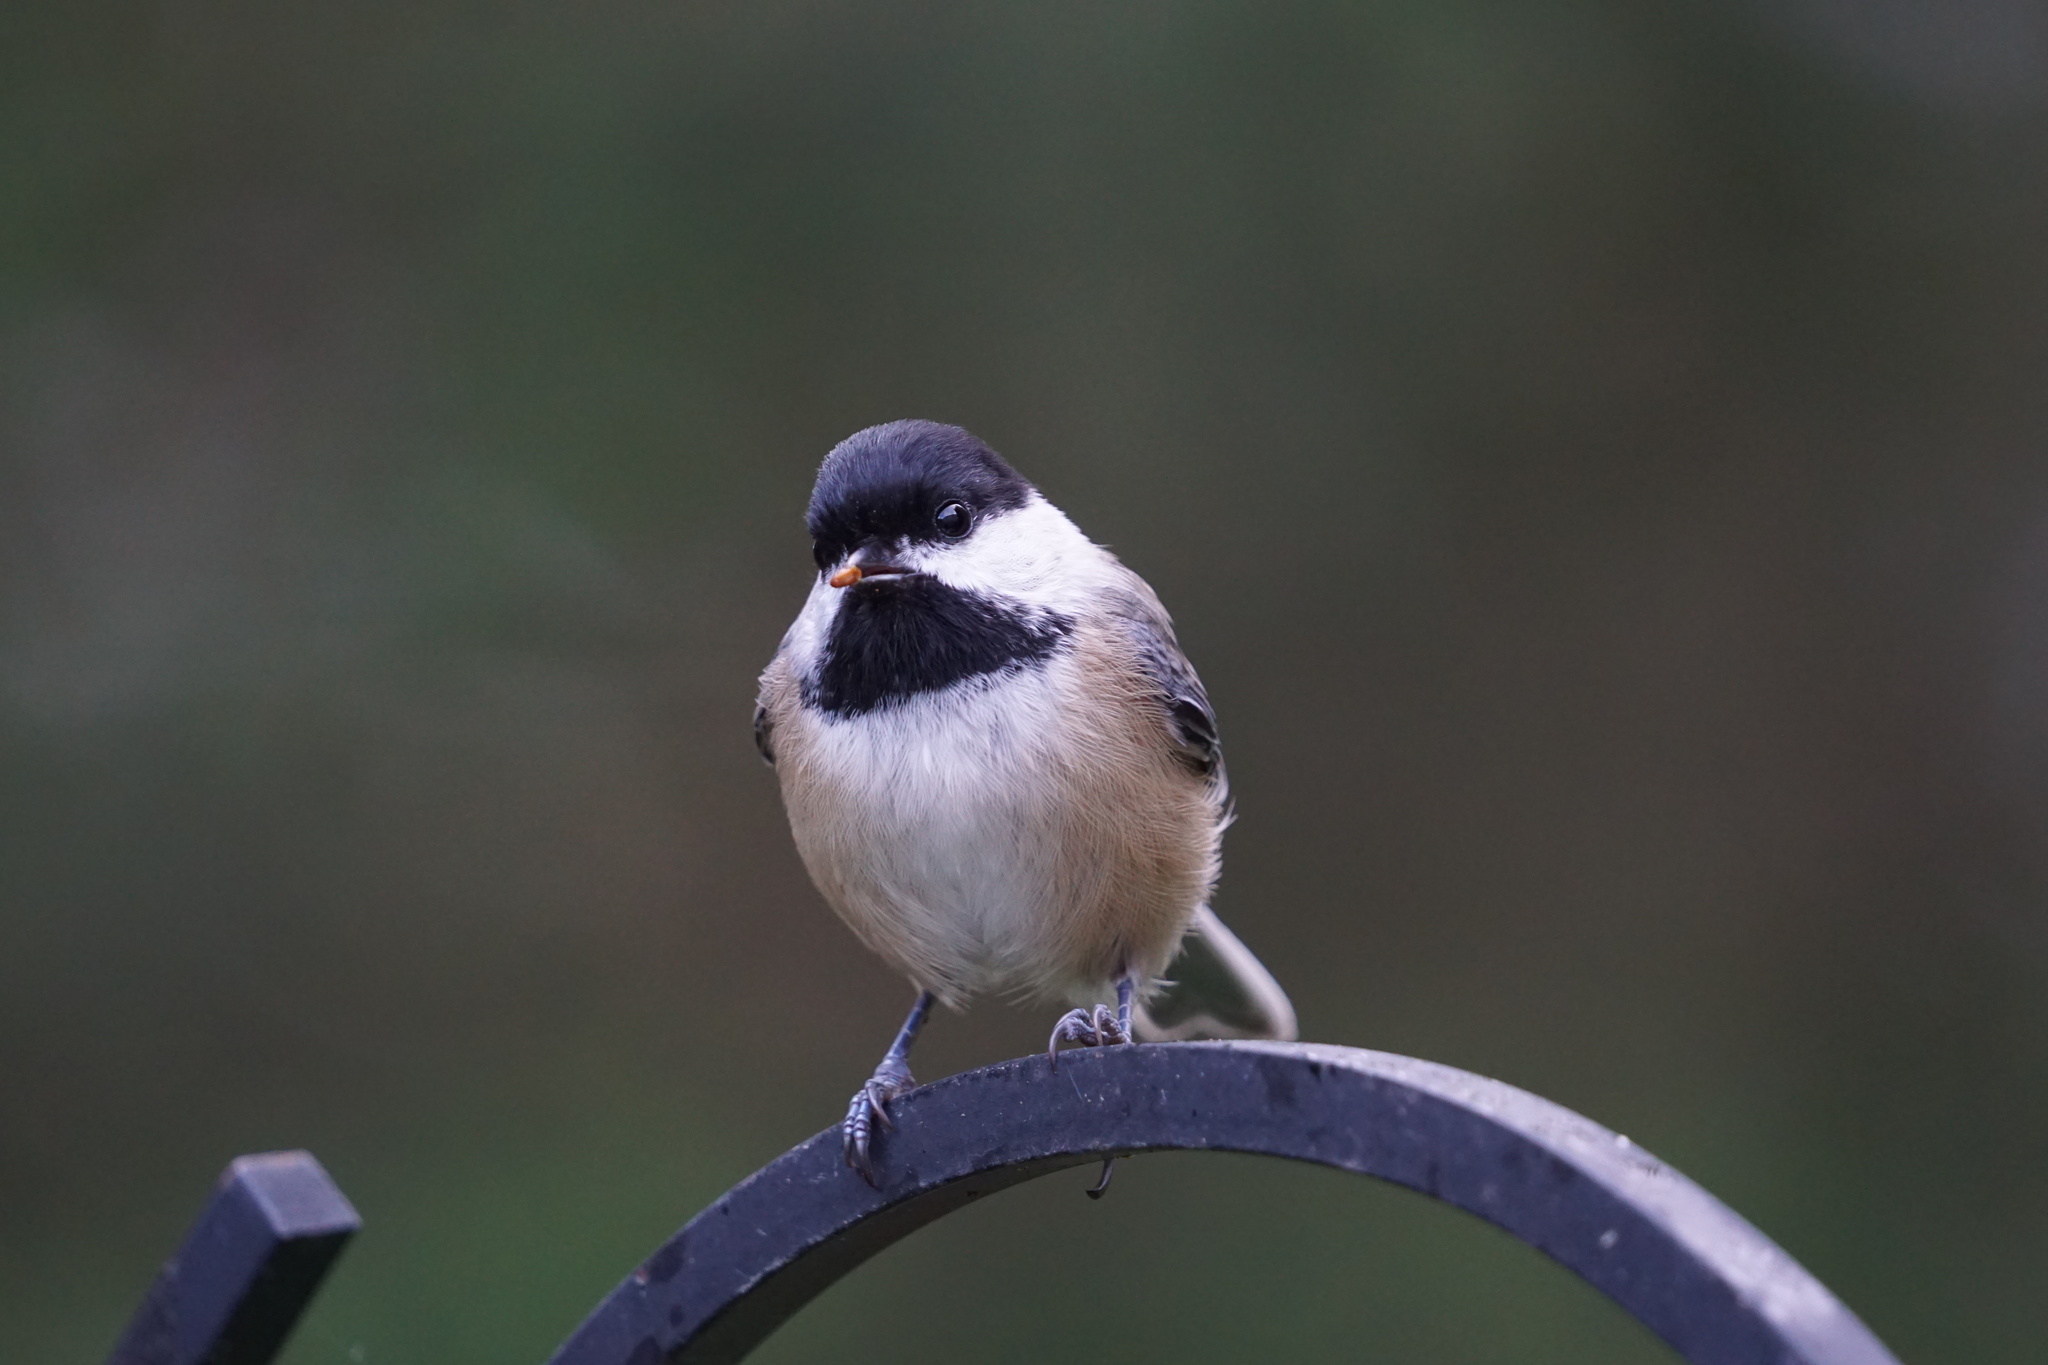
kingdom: Animalia
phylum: Chordata
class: Aves
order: Passeriformes
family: Paridae
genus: Poecile
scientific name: Poecile atricapillus
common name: Black-capped chickadee
